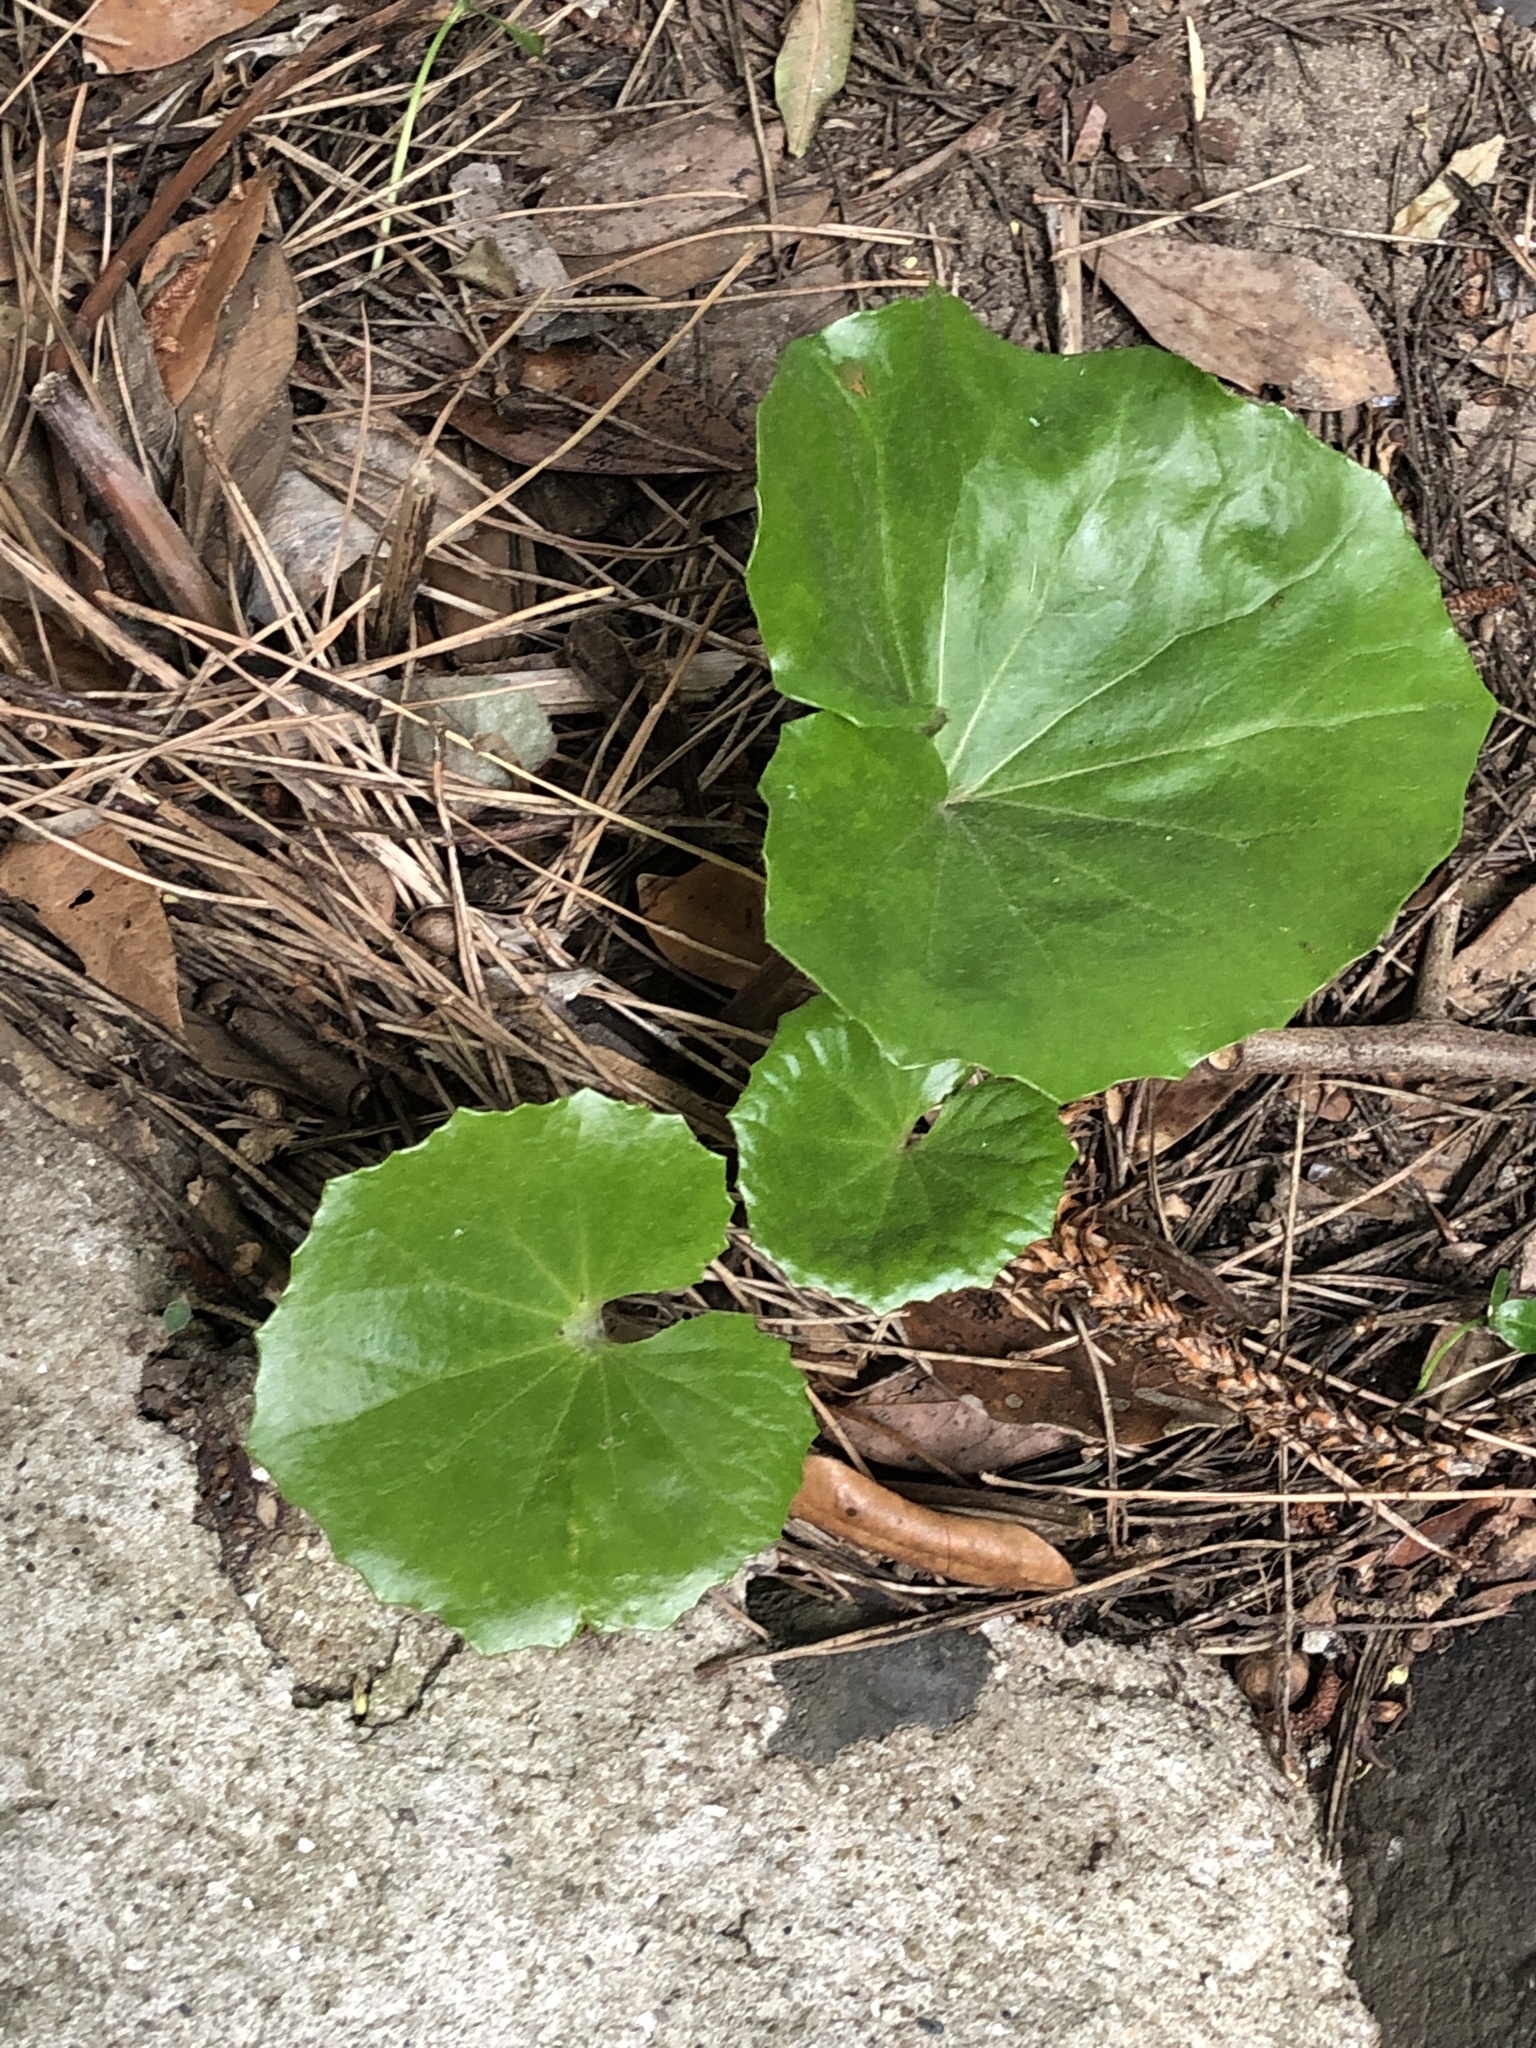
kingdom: Plantae
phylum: Tracheophyta
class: Magnoliopsida
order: Asterales
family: Asteraceae
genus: Farfugium
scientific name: Farfugium japonicum
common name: Leopardplant
